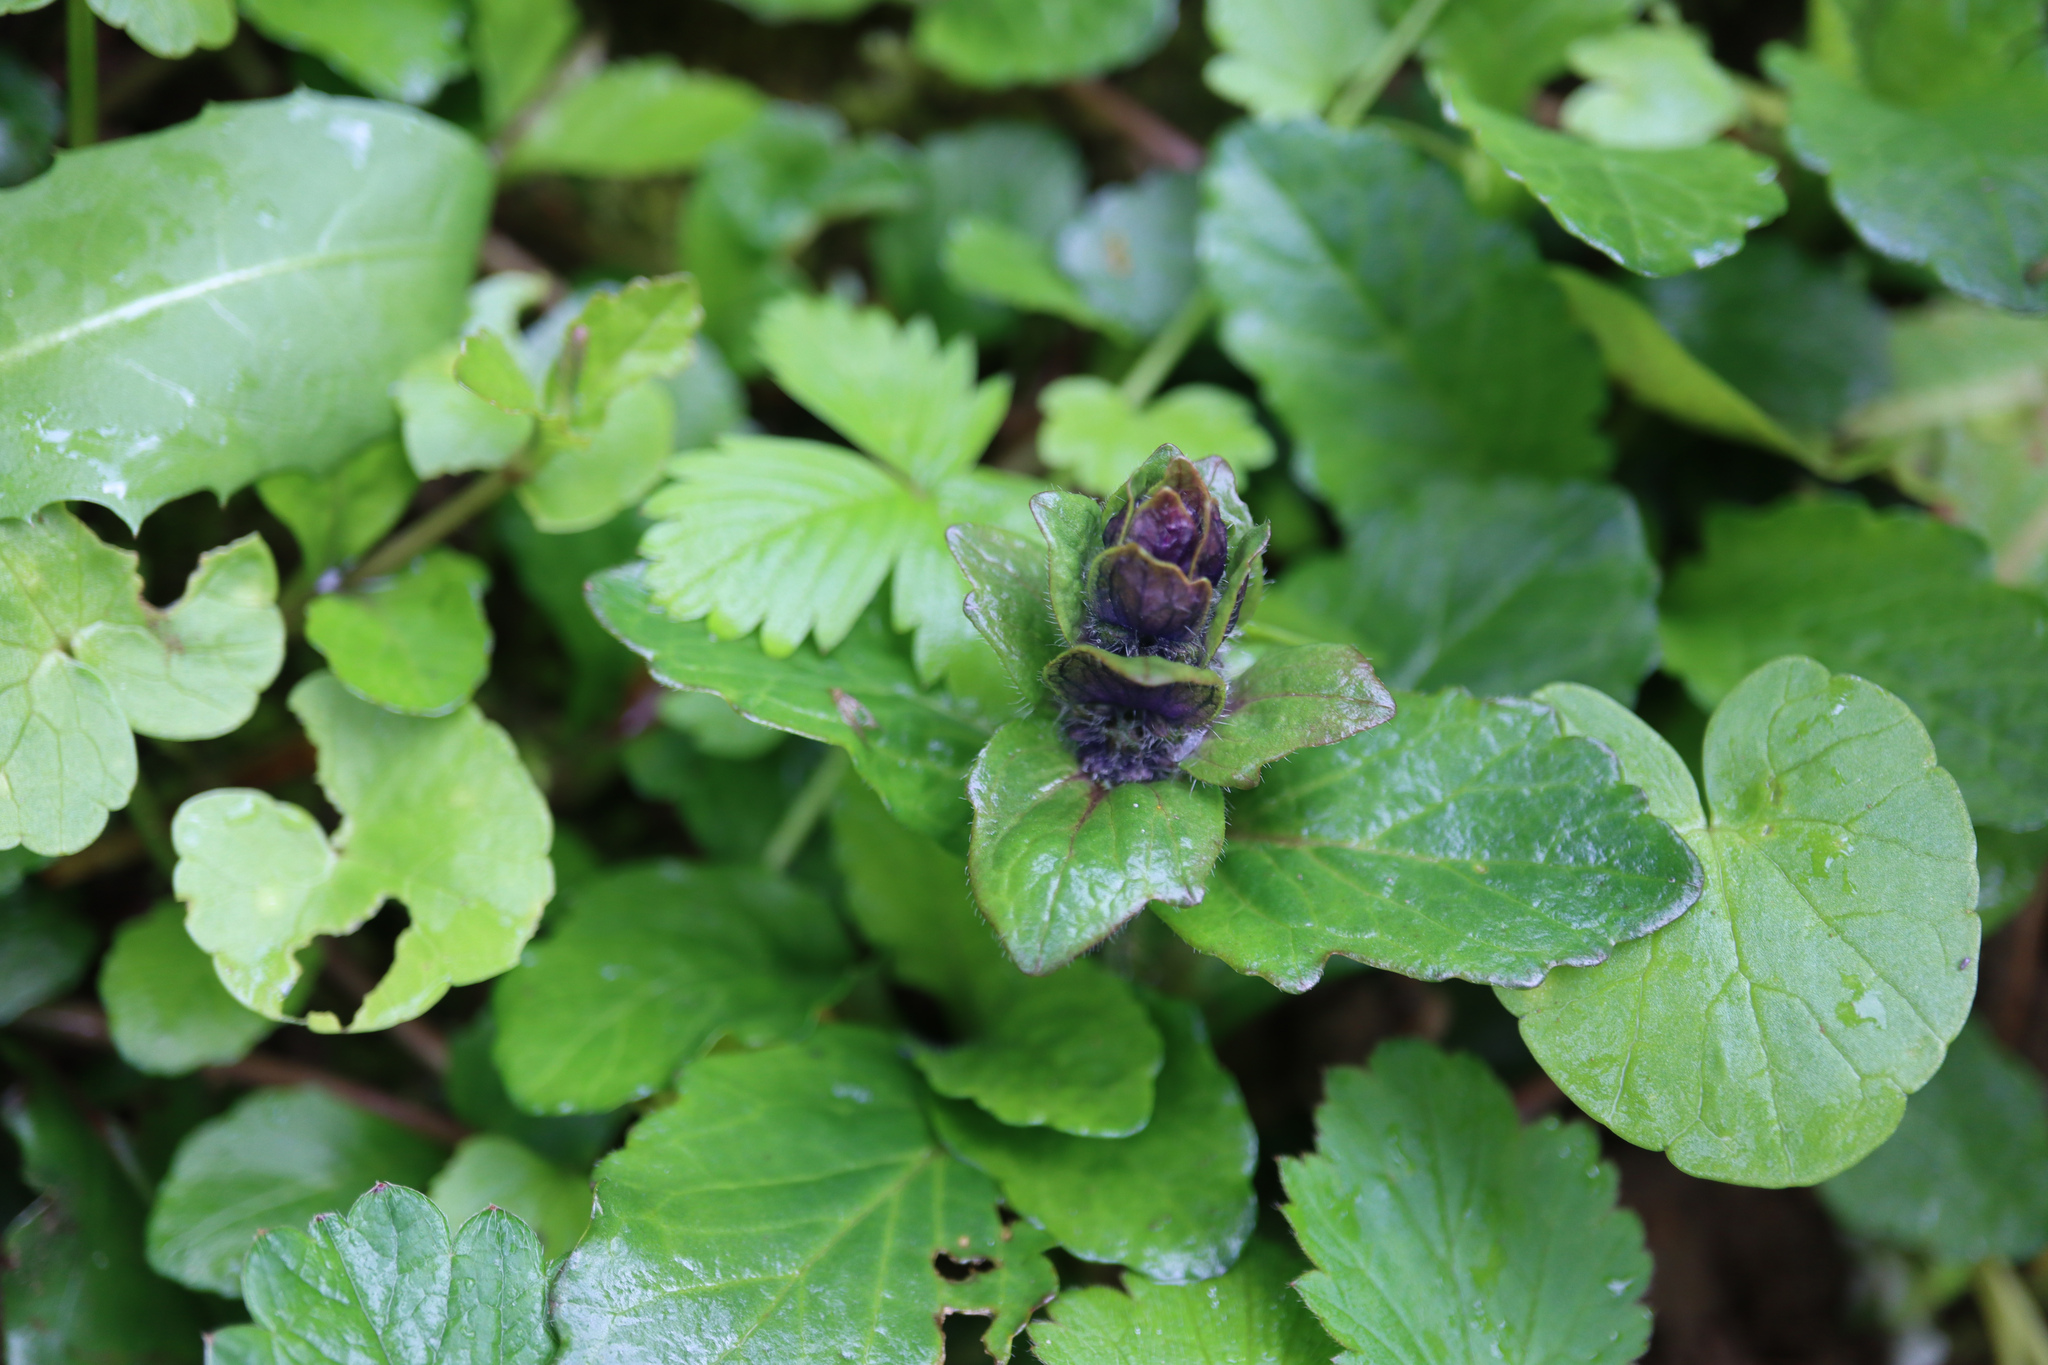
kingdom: Plantae
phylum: Tracheophyta
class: Magnoliopsida
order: Lamiales
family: Lamiaceae
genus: Ajuga
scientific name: Ajuga reptans
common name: Bugle
